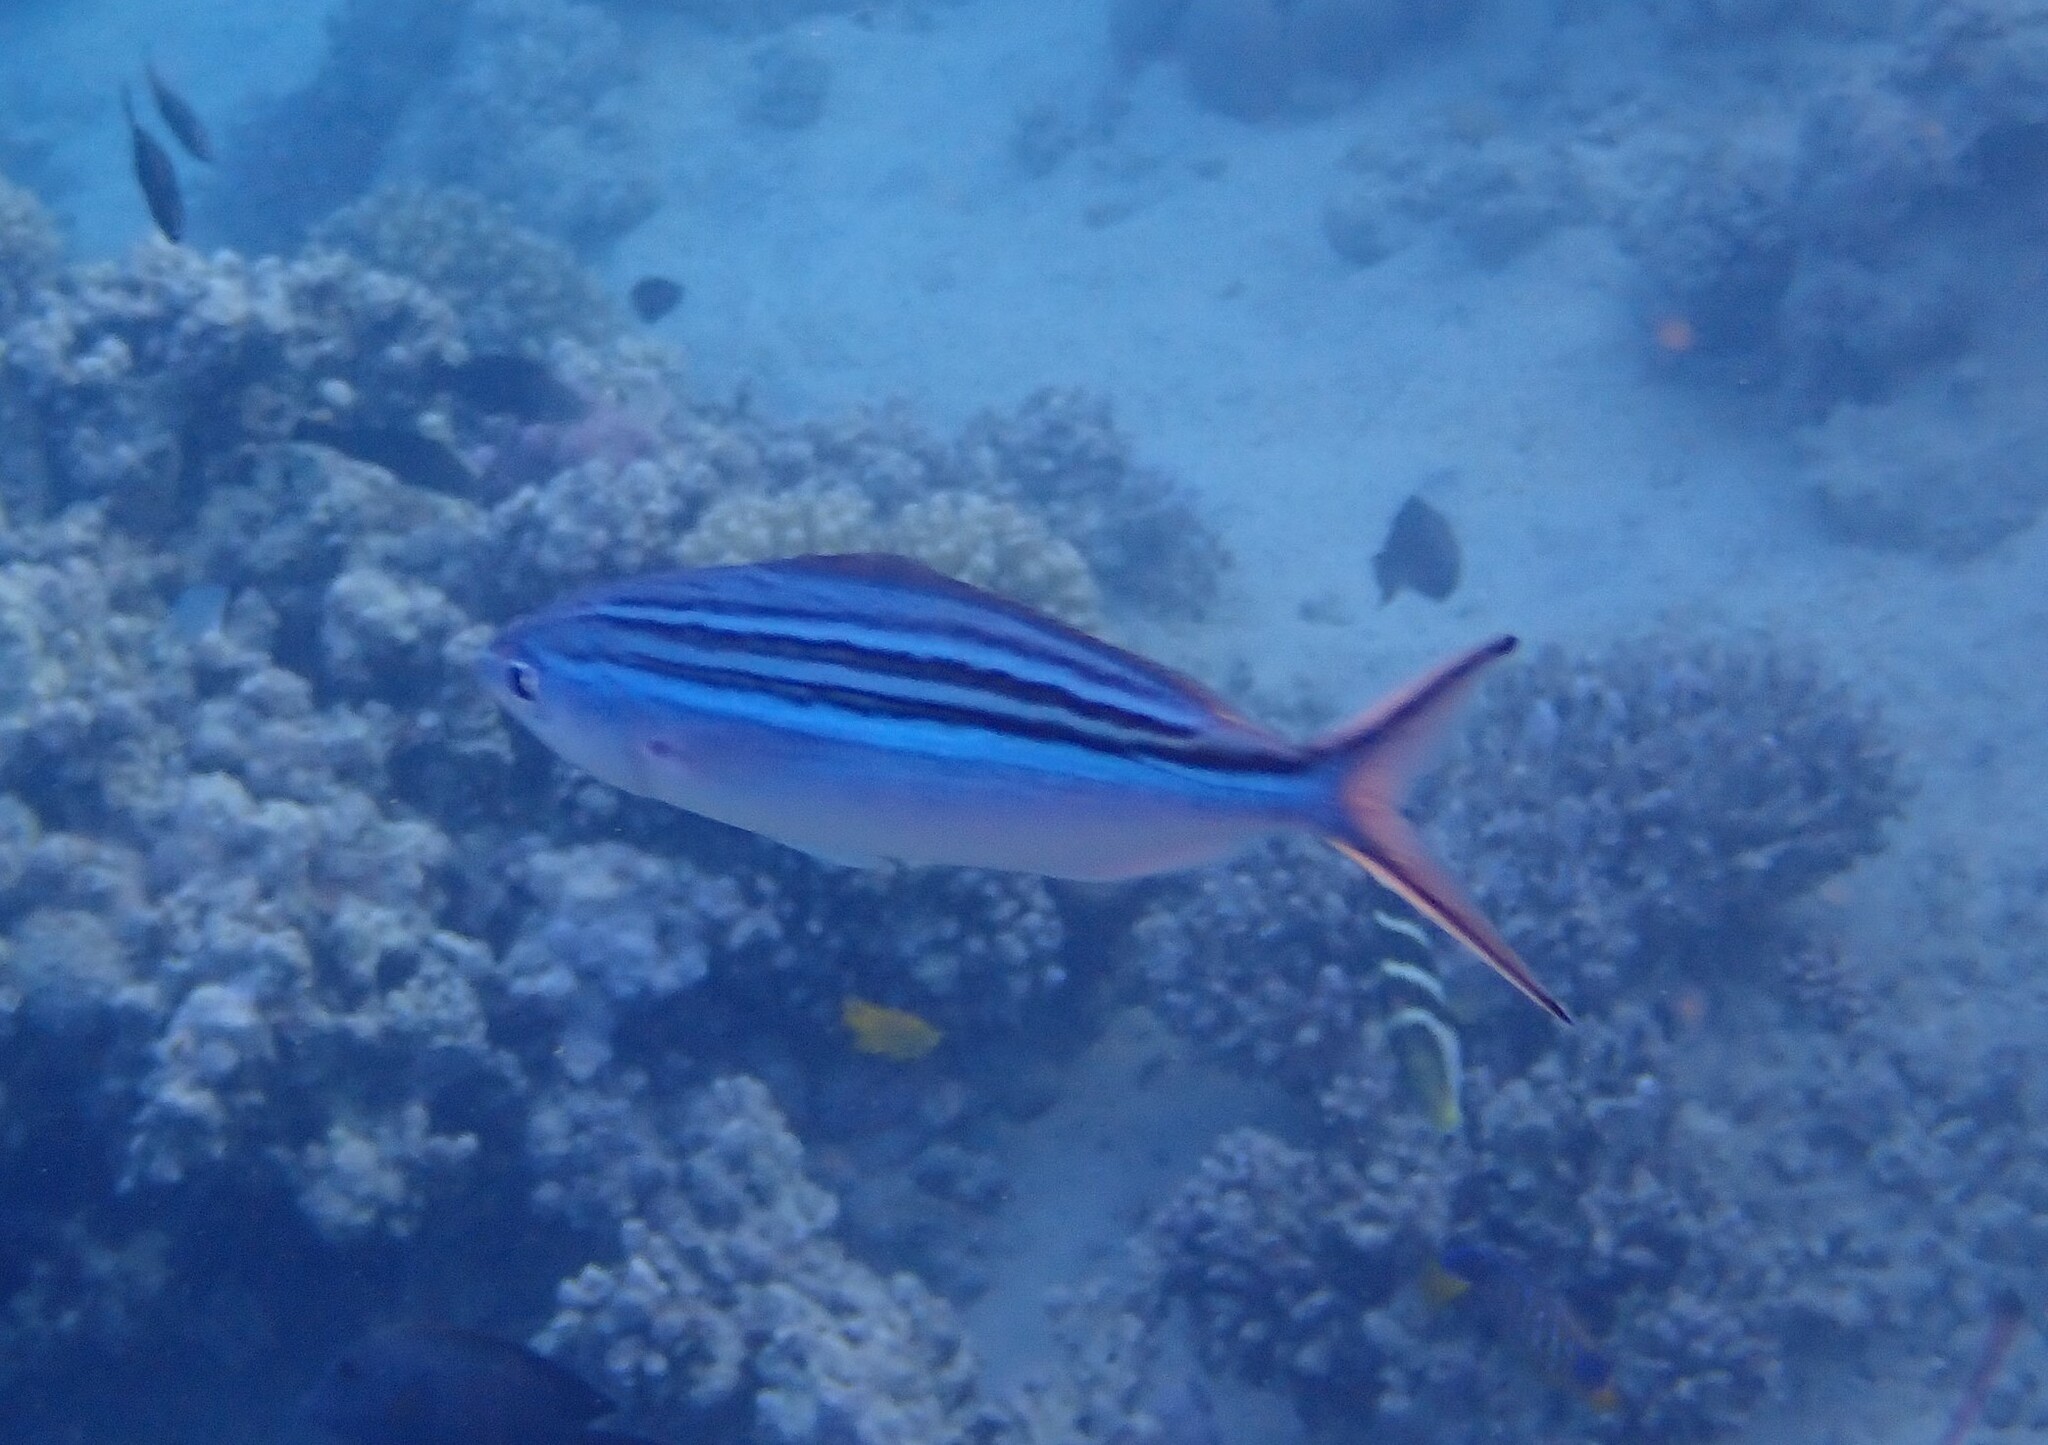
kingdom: Animalia
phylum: Chordata
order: Perciformes
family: Caesionidae
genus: Caesio
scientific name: Caesio striata
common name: Striated fusilier
